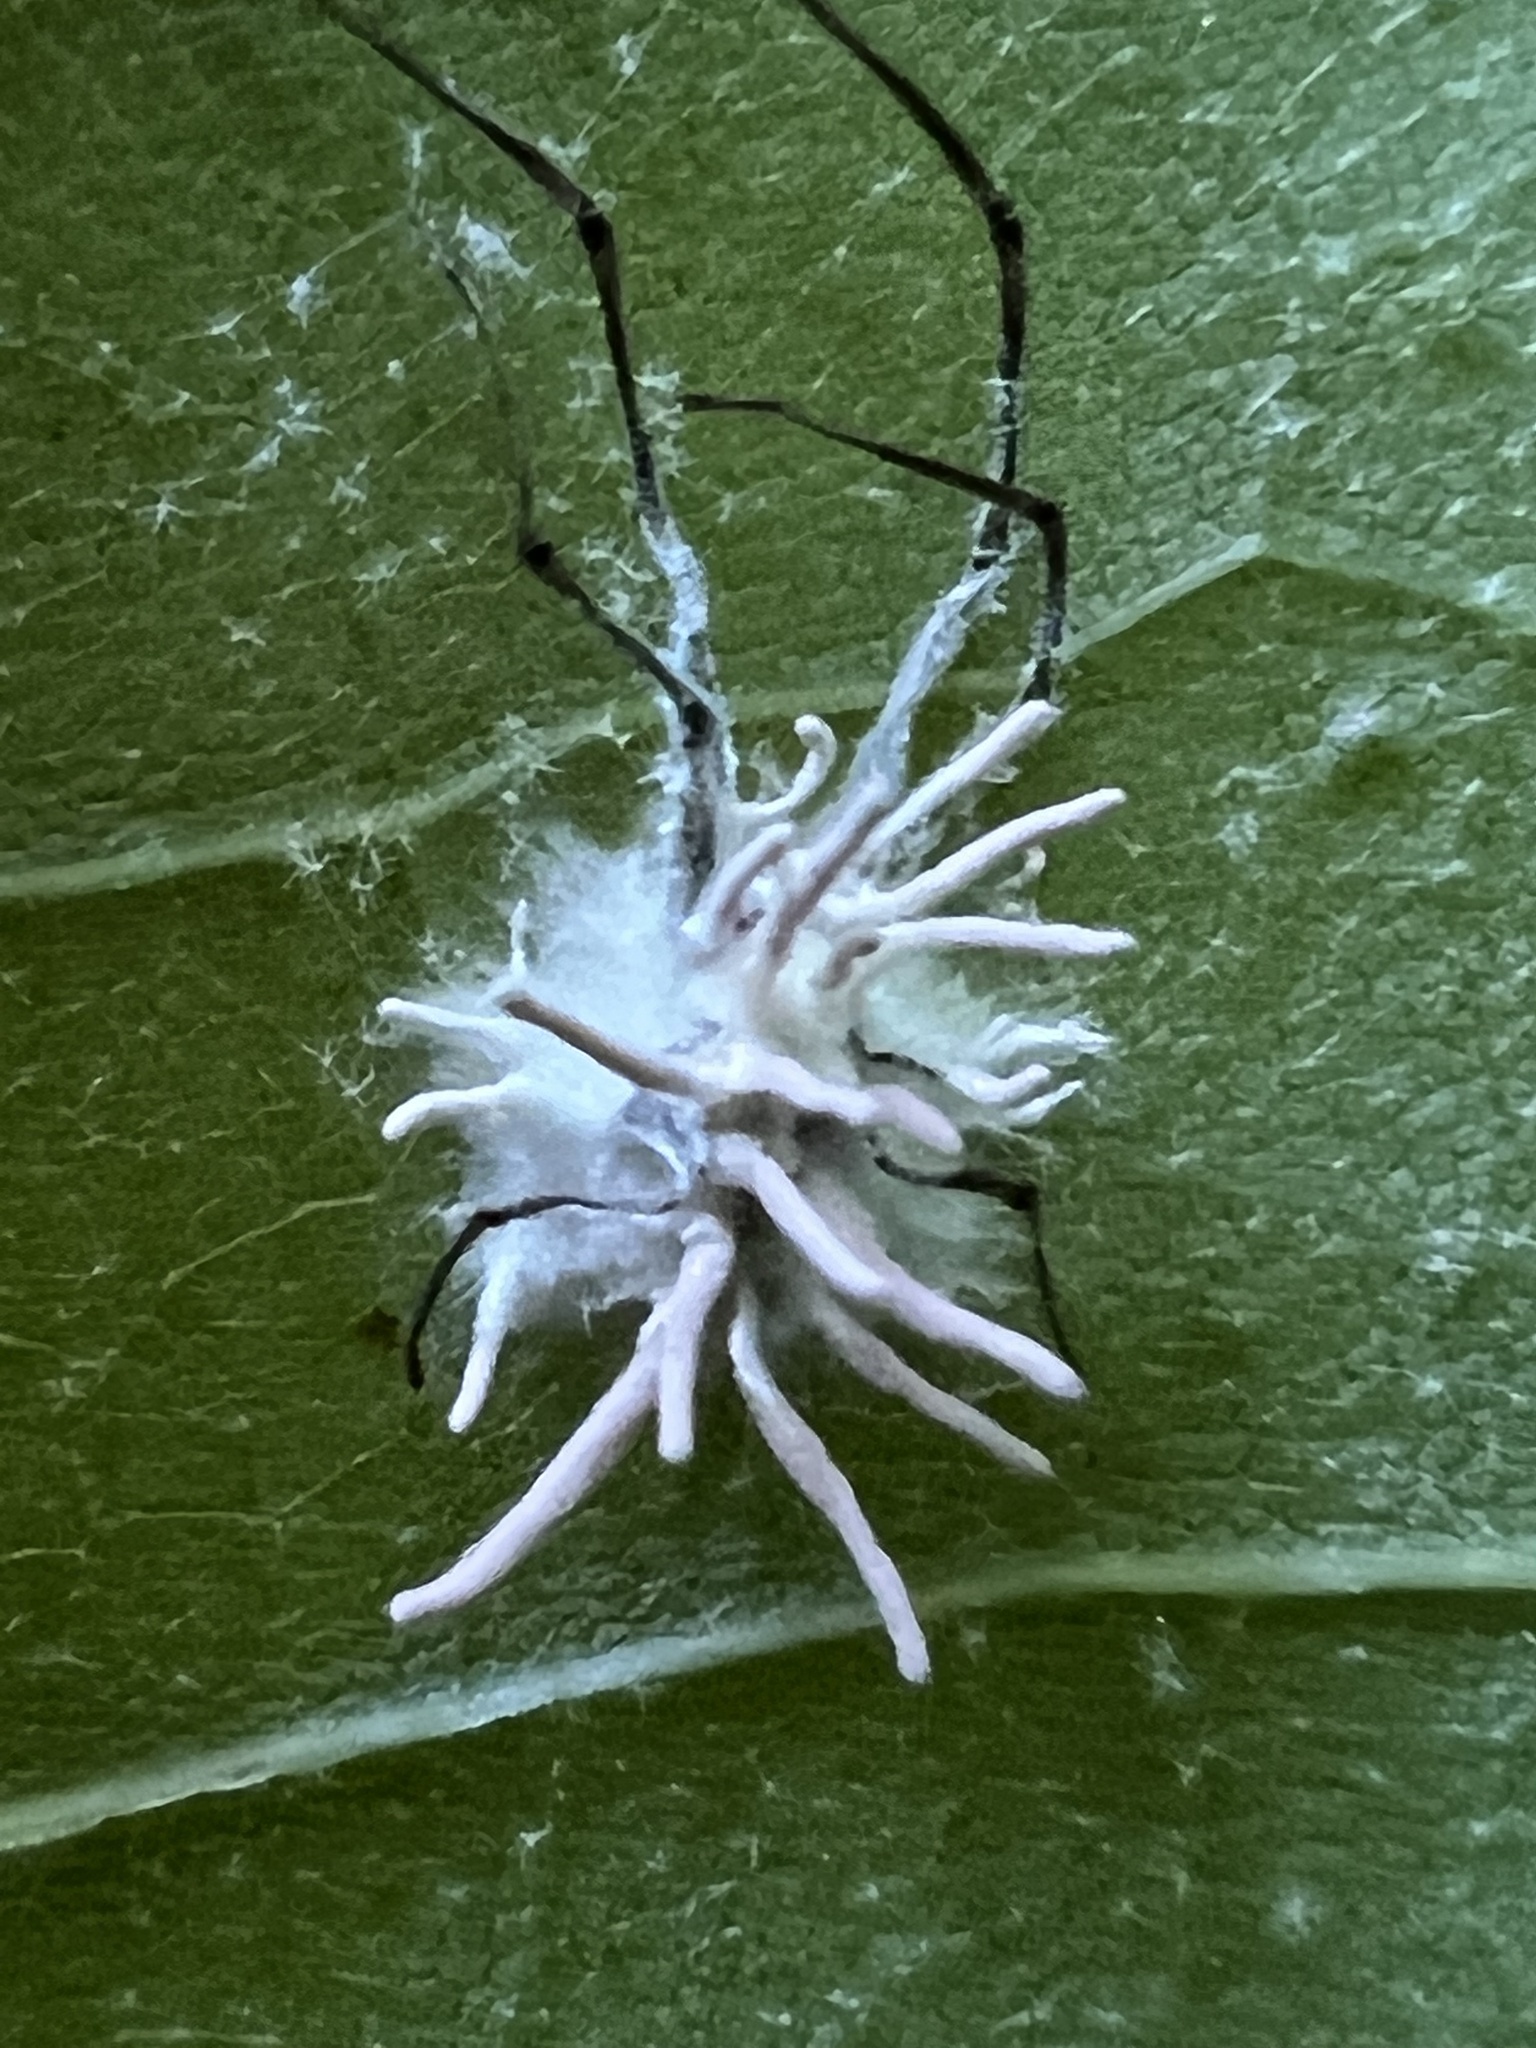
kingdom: Fungi
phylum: Ascomycota
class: Sordariomycetes
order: Hypocreales
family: Cordycipitaceae
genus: Gibellula
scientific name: Gibellula arachnophila
